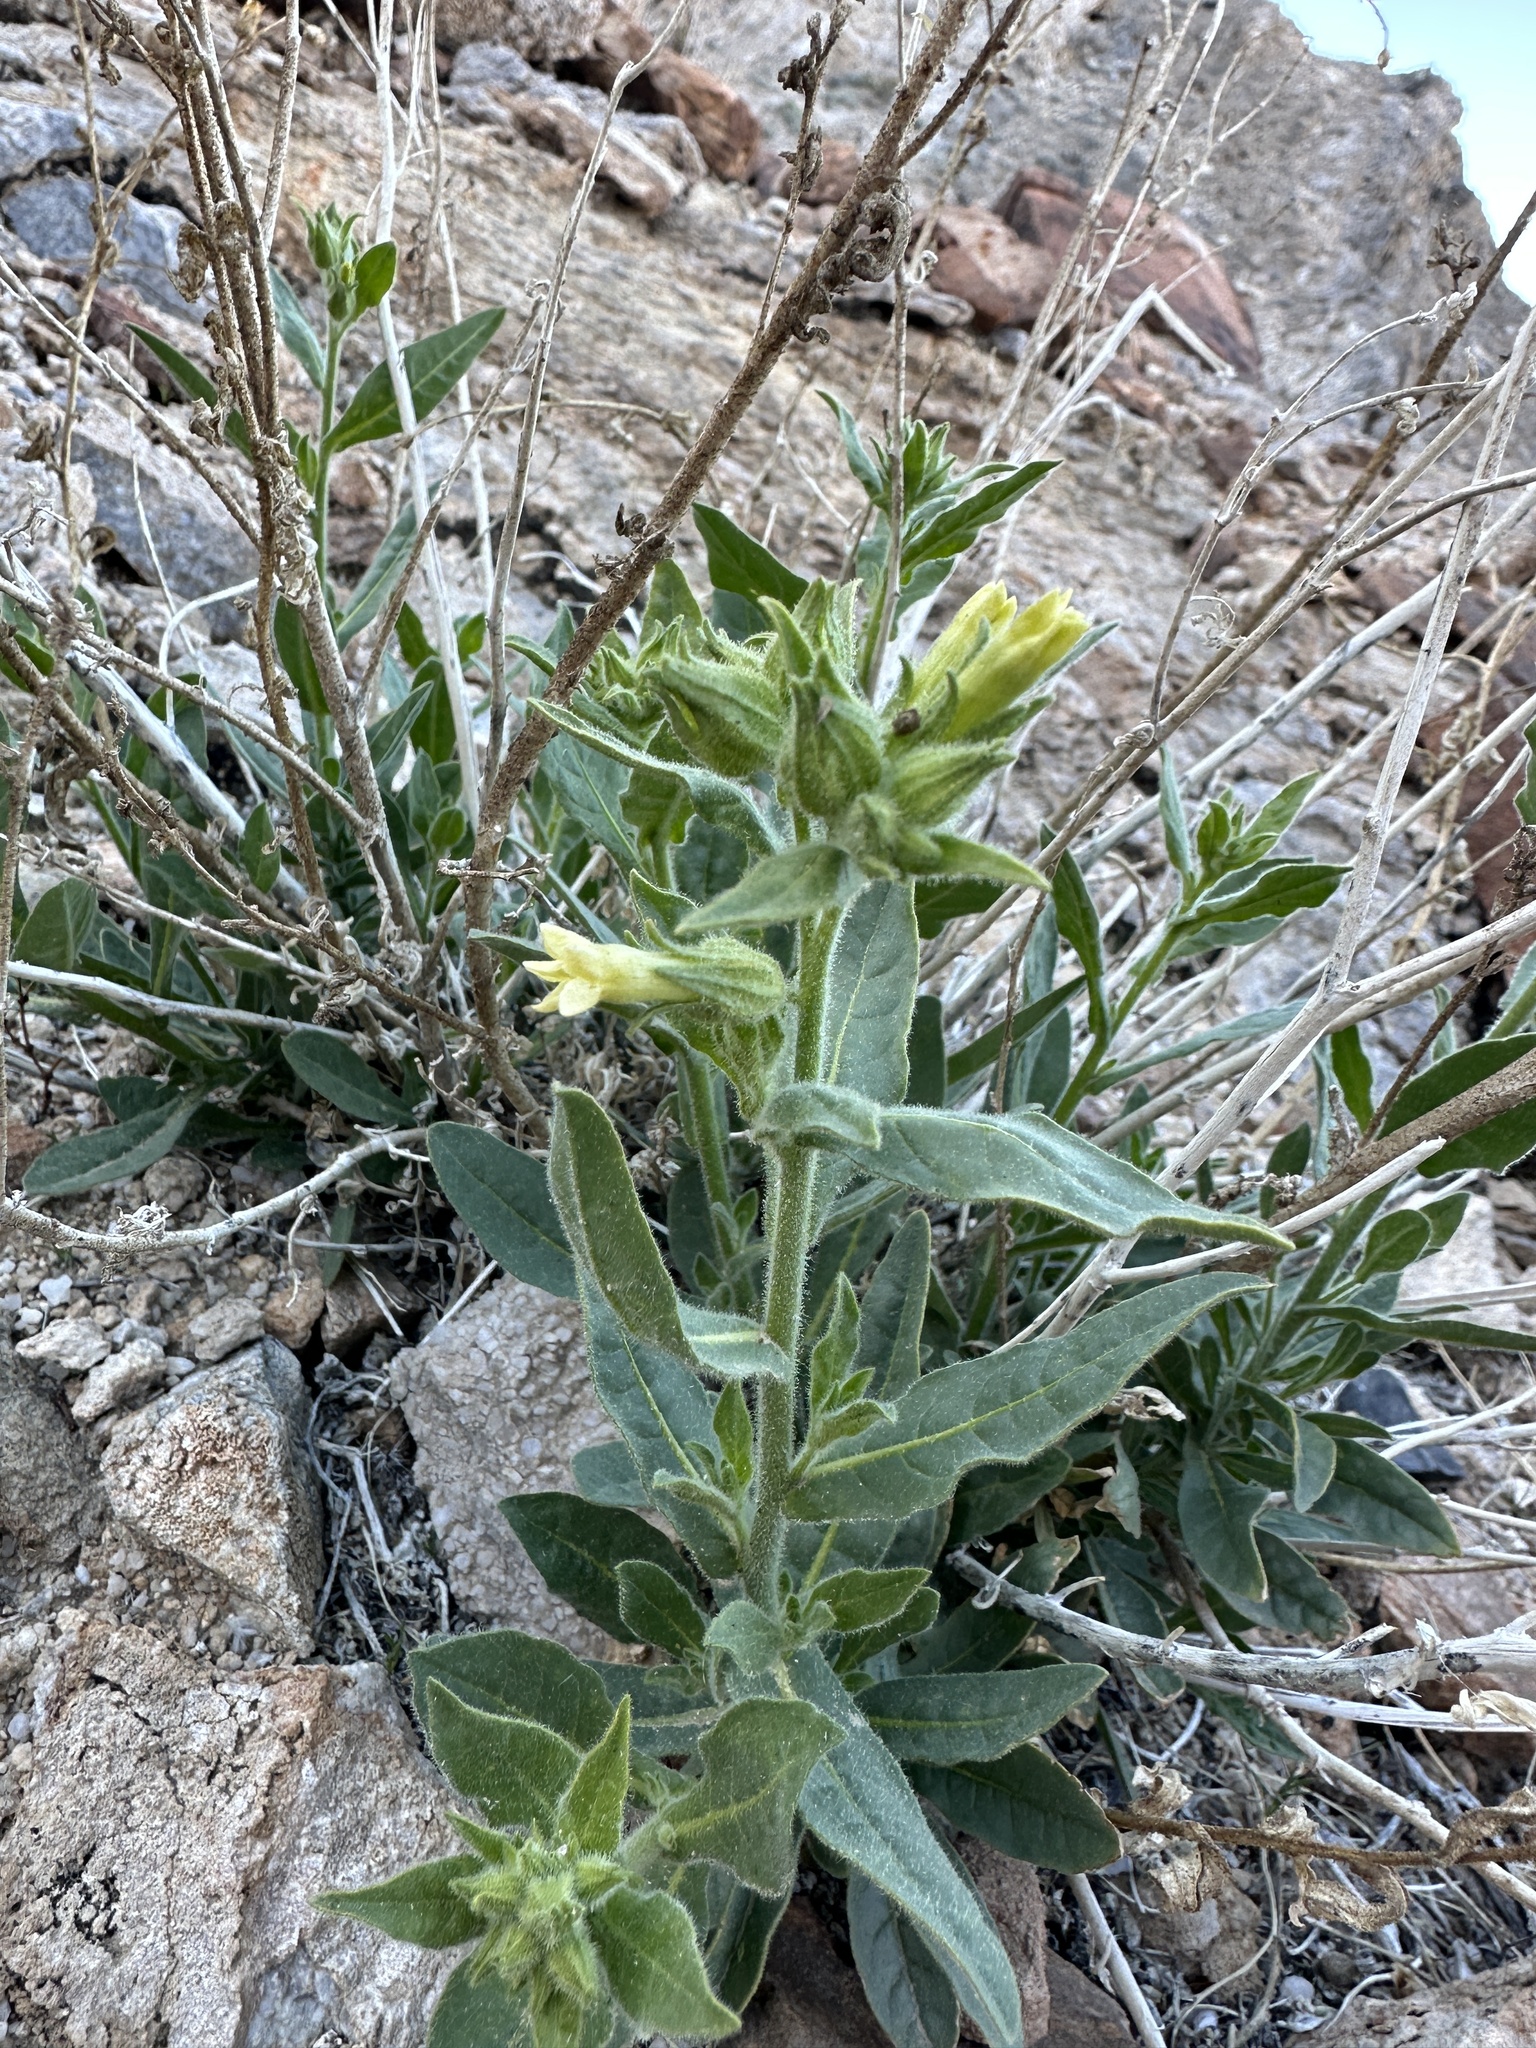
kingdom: Plantae
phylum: Tracheophyta
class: Magnoliopsida
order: Solanales
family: Solanaceae
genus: Nicotiana
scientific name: Nicotiana obtusifolia
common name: Desert tobacco
